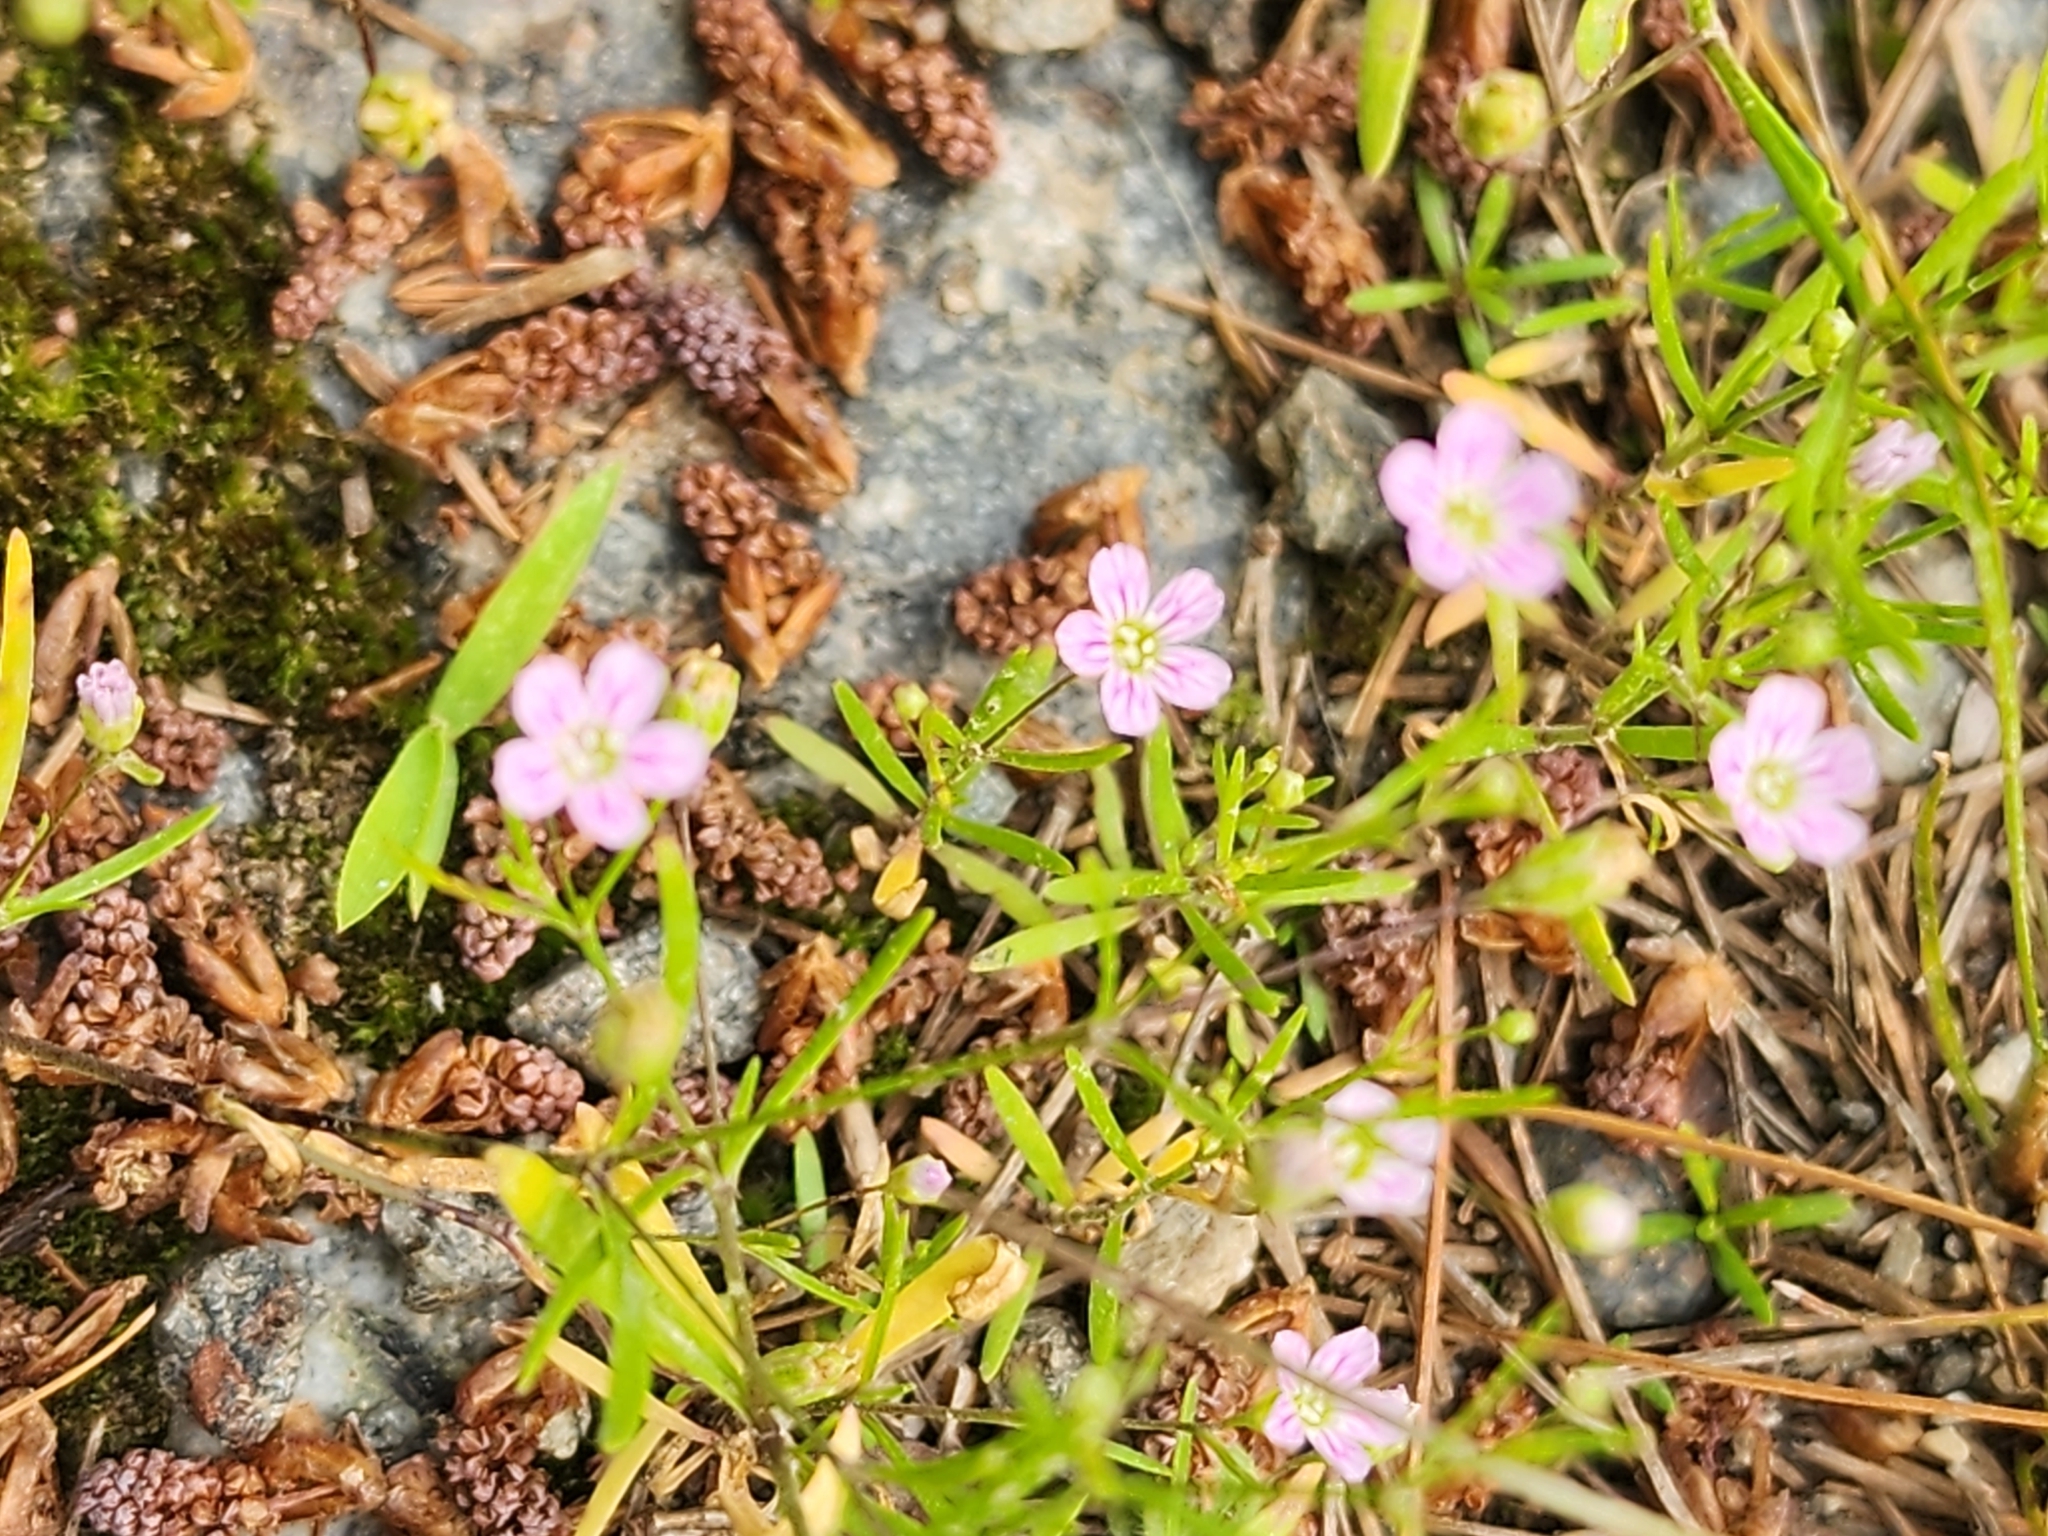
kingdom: Plantae
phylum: Tracheophyta
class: Magnoliopsida
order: Caryophyllales
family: Caryophyllaceae
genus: Psammophiliella
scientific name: Psammophiliella muralis
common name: Cushion baby's-breath
